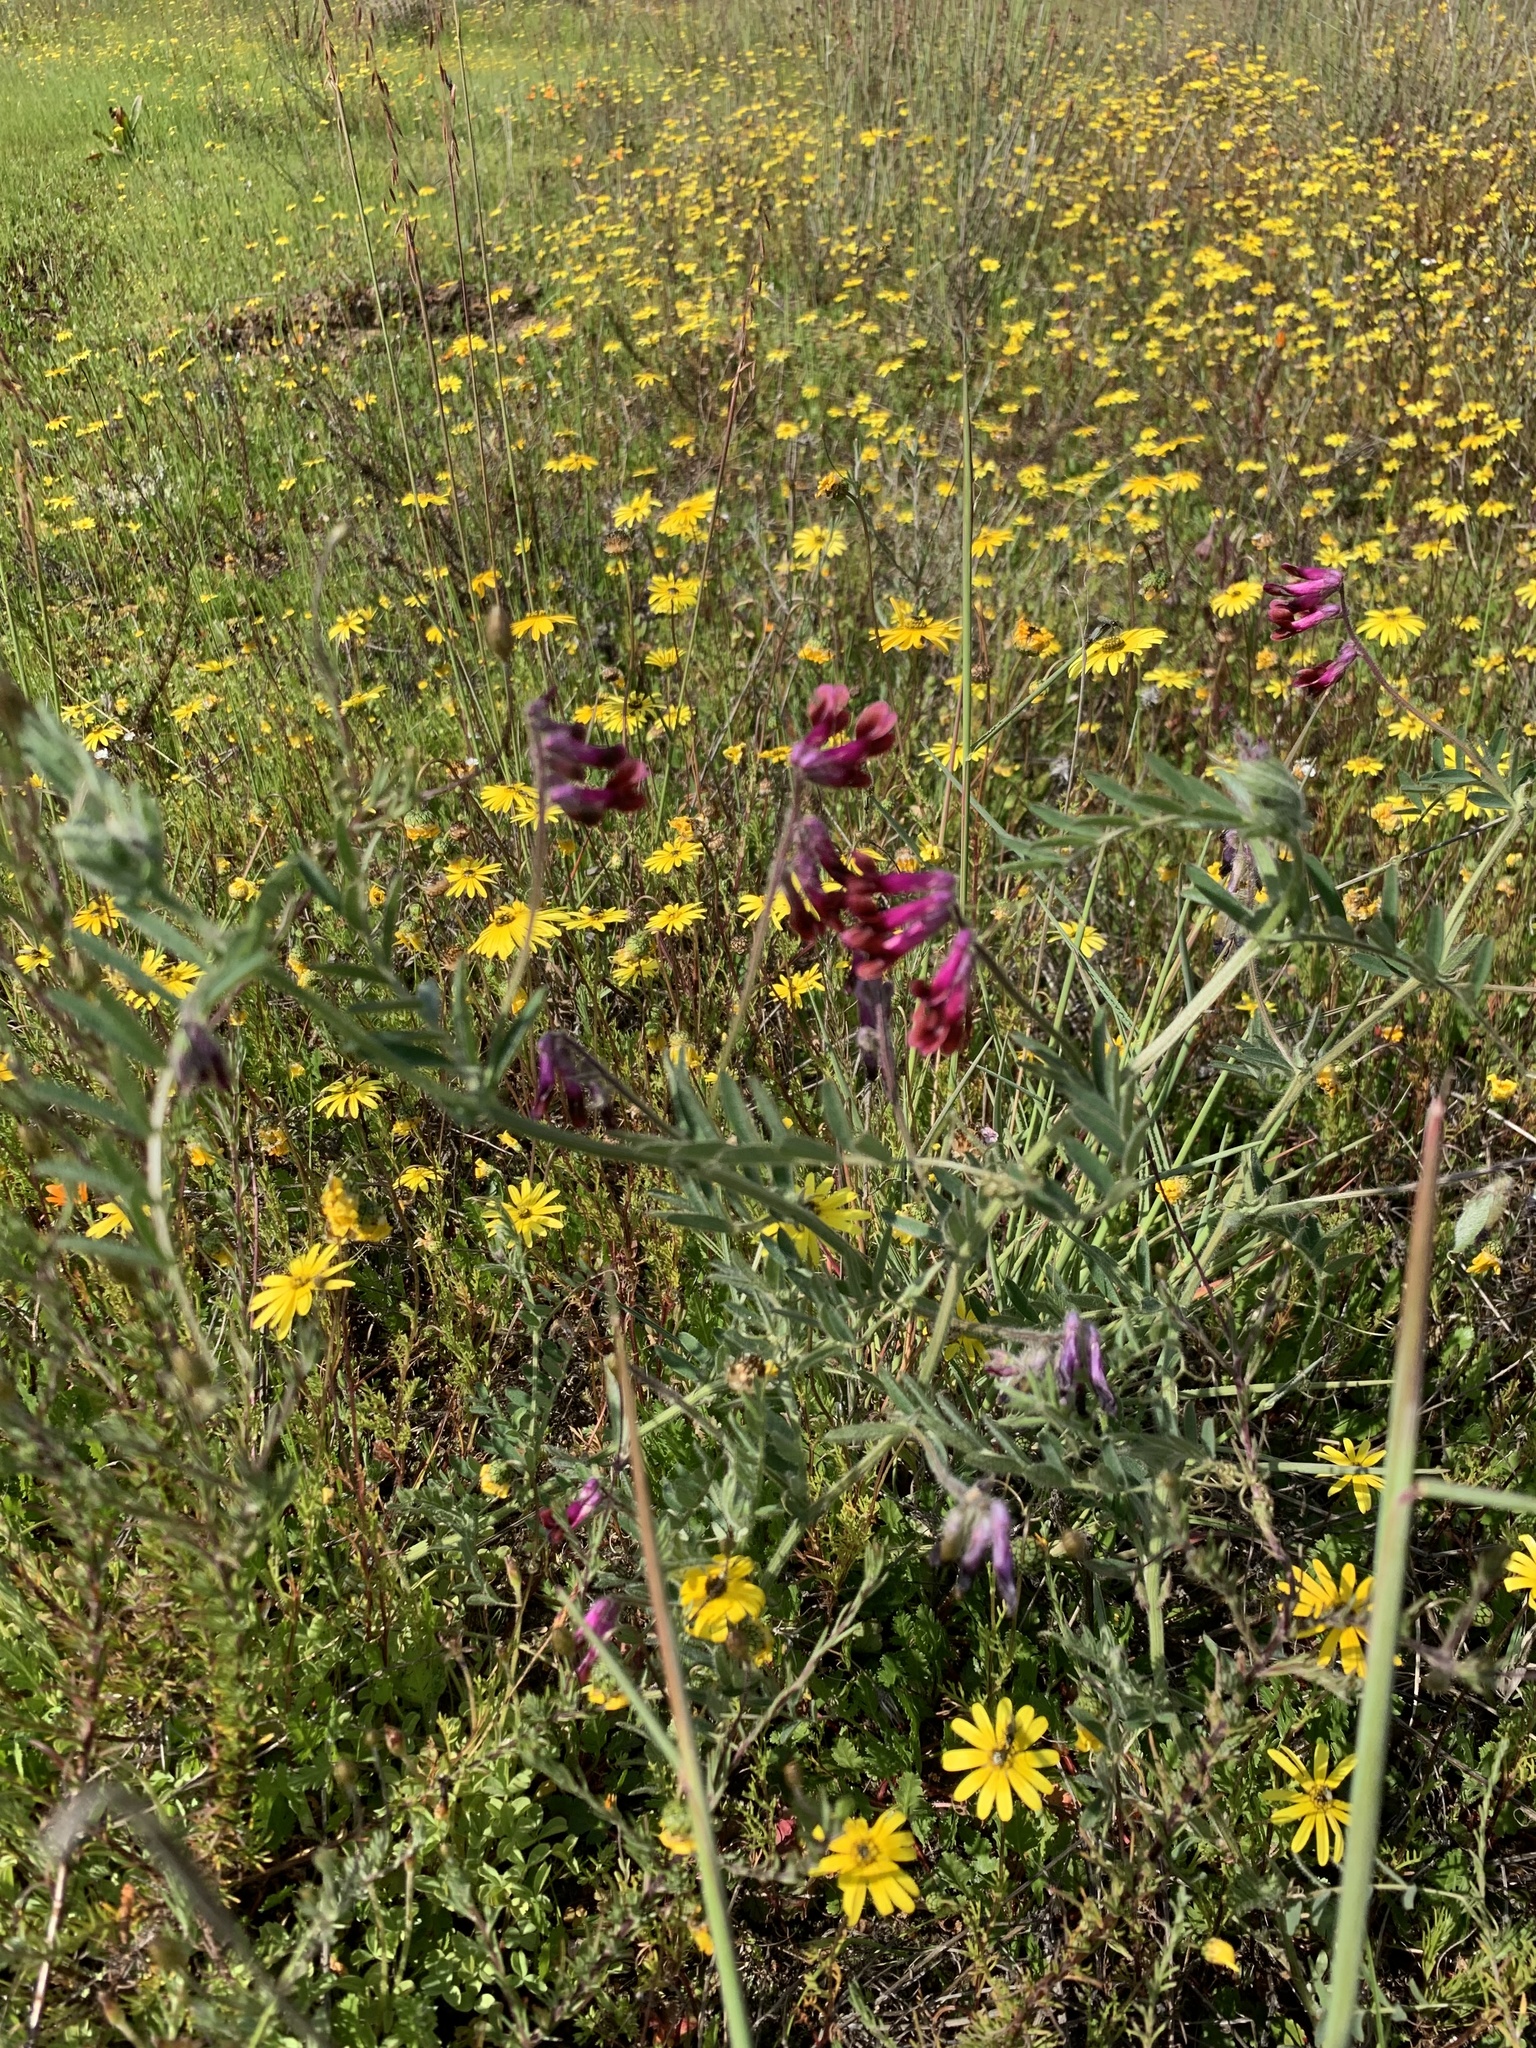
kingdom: Plantae
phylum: Tracheophyta
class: Magnoliopsida
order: Fabales
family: Fabaceae
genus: Vicia
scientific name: Vicia benghalensis
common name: Purple vetch
